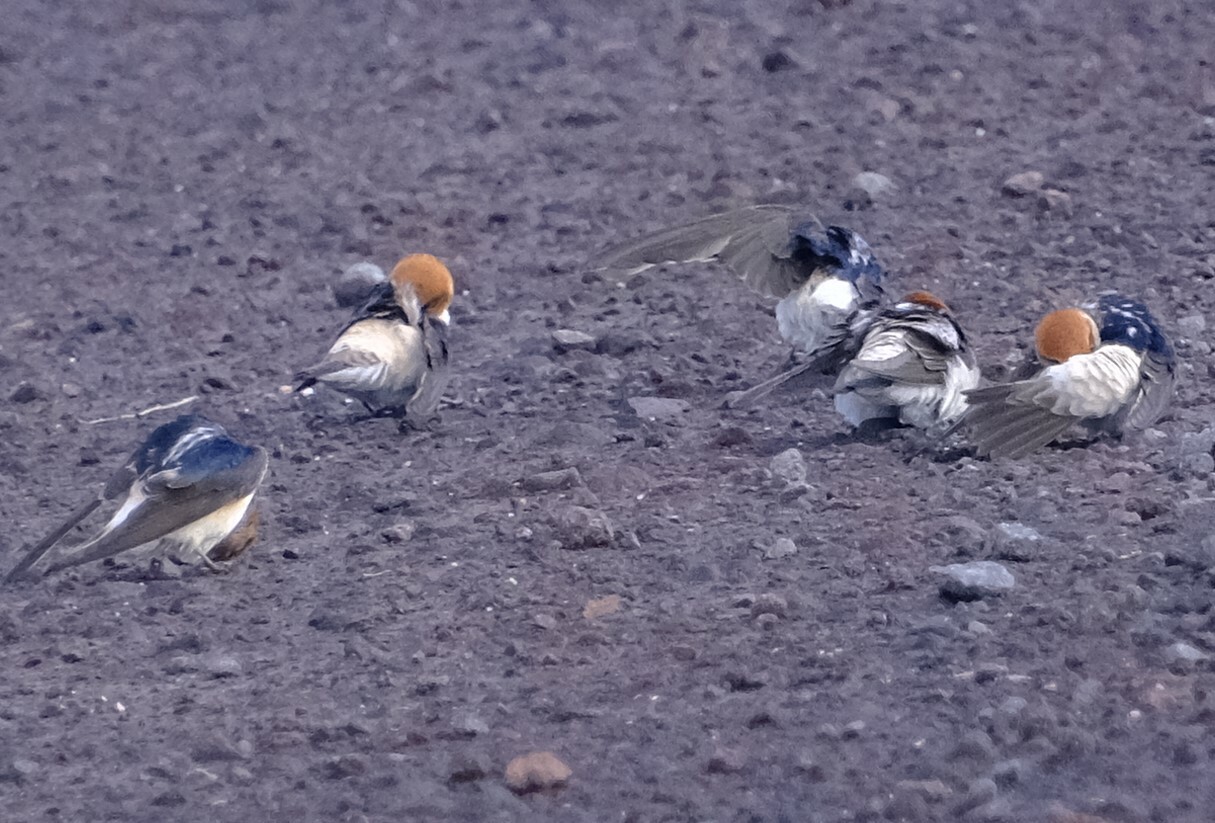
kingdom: Animalia
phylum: Chordata
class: Aves
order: Passeriformes
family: Hirundinidae
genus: Petrochelidon
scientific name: Petrochelidon ariel
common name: Fairy martin
